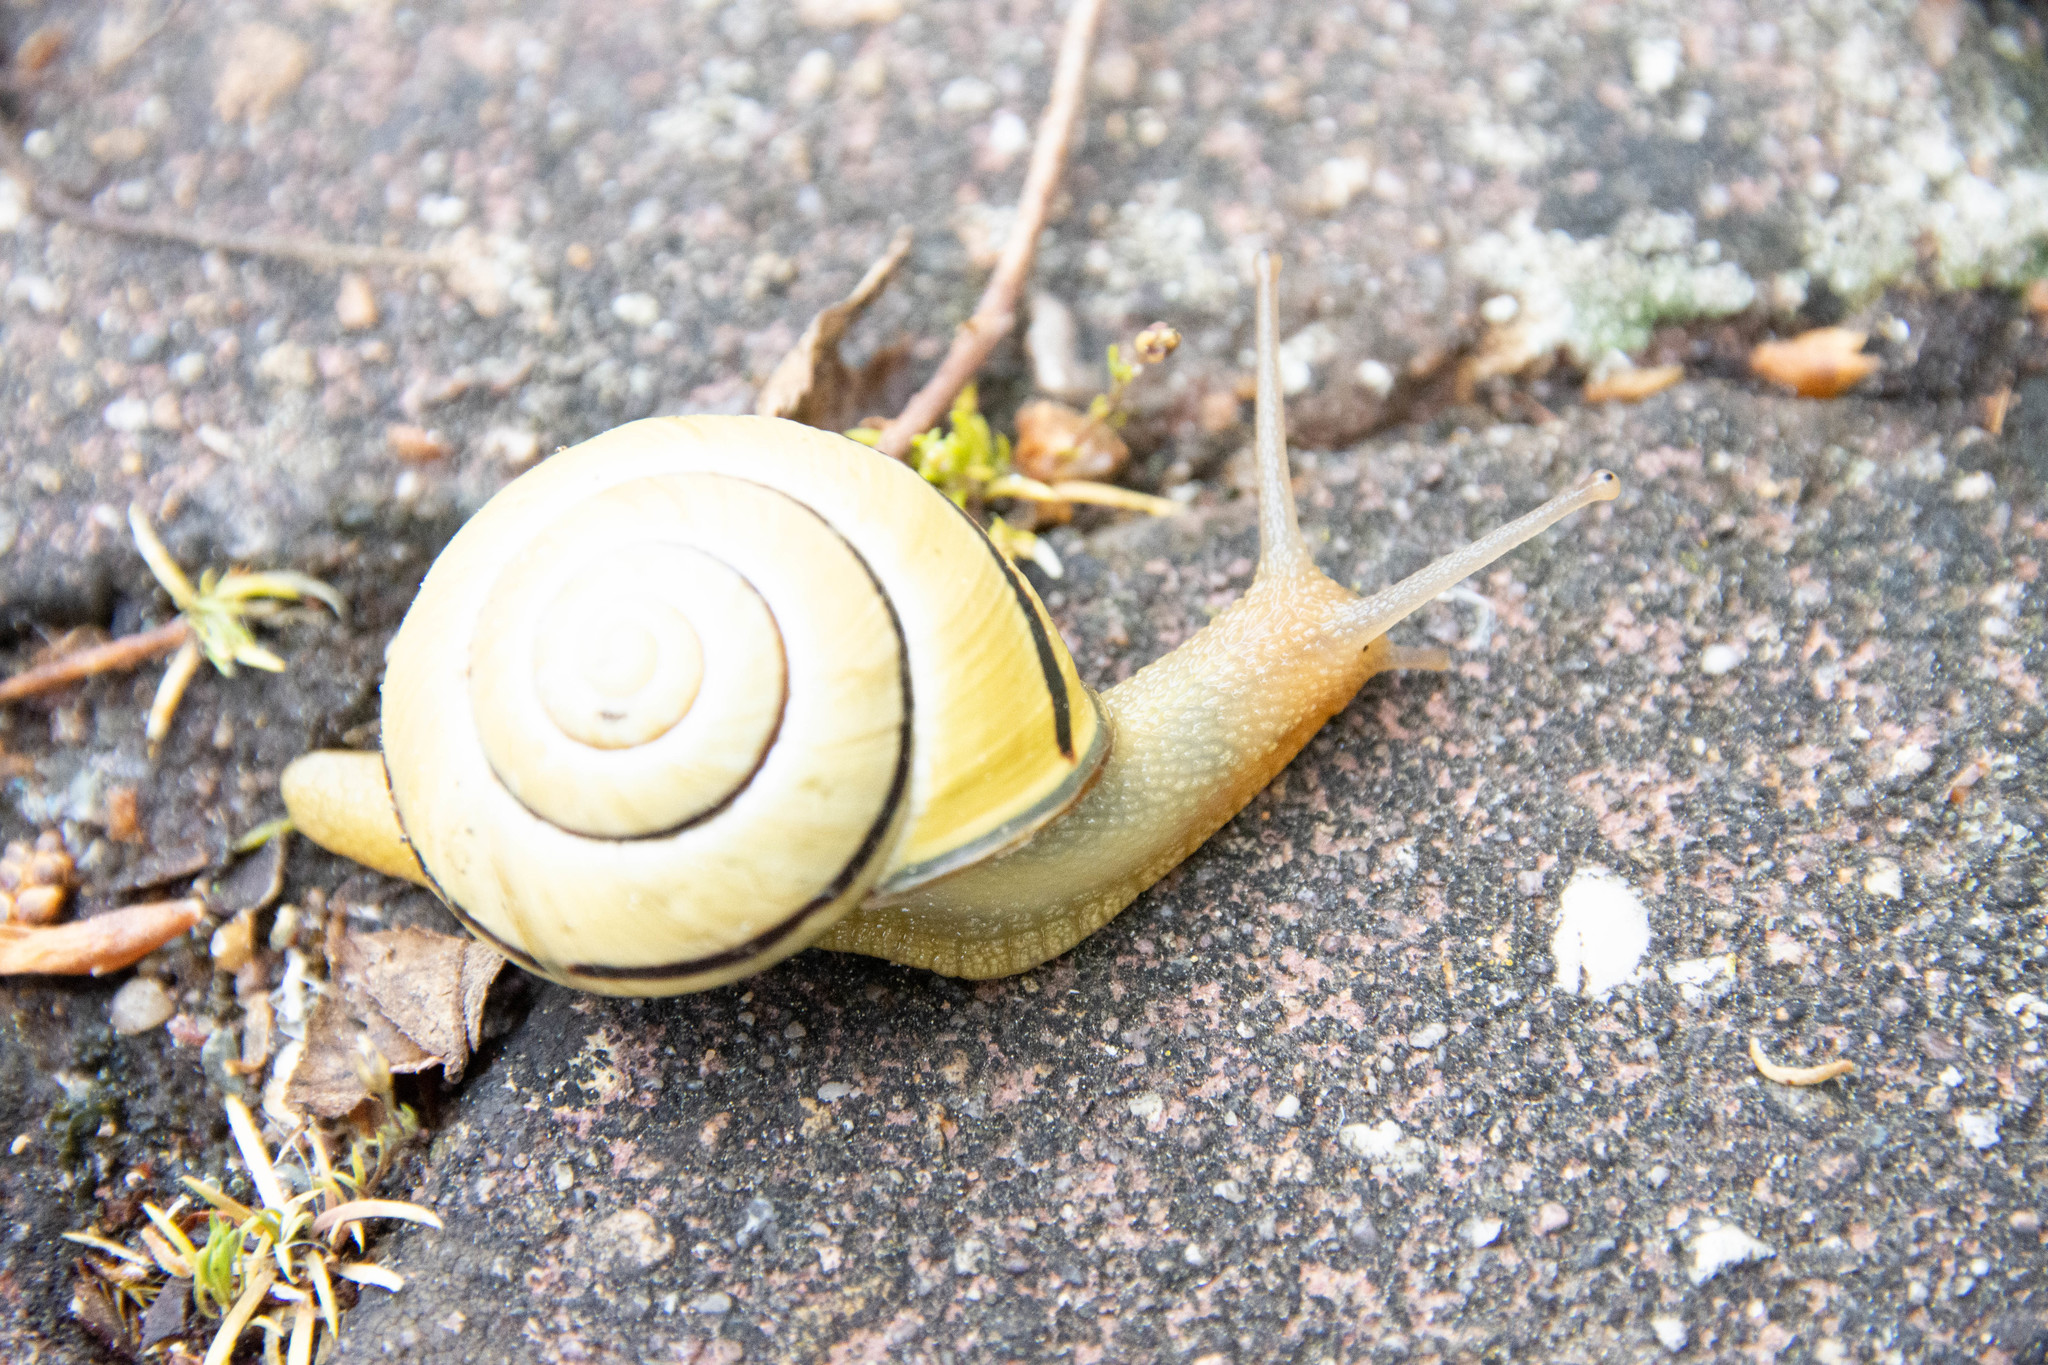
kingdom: Animalia
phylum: Mollusca
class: Gastropoda
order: Stylommatophora
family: Helicidae
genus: Cepaea
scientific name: Cepaea nemoralis
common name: Grovesnail
